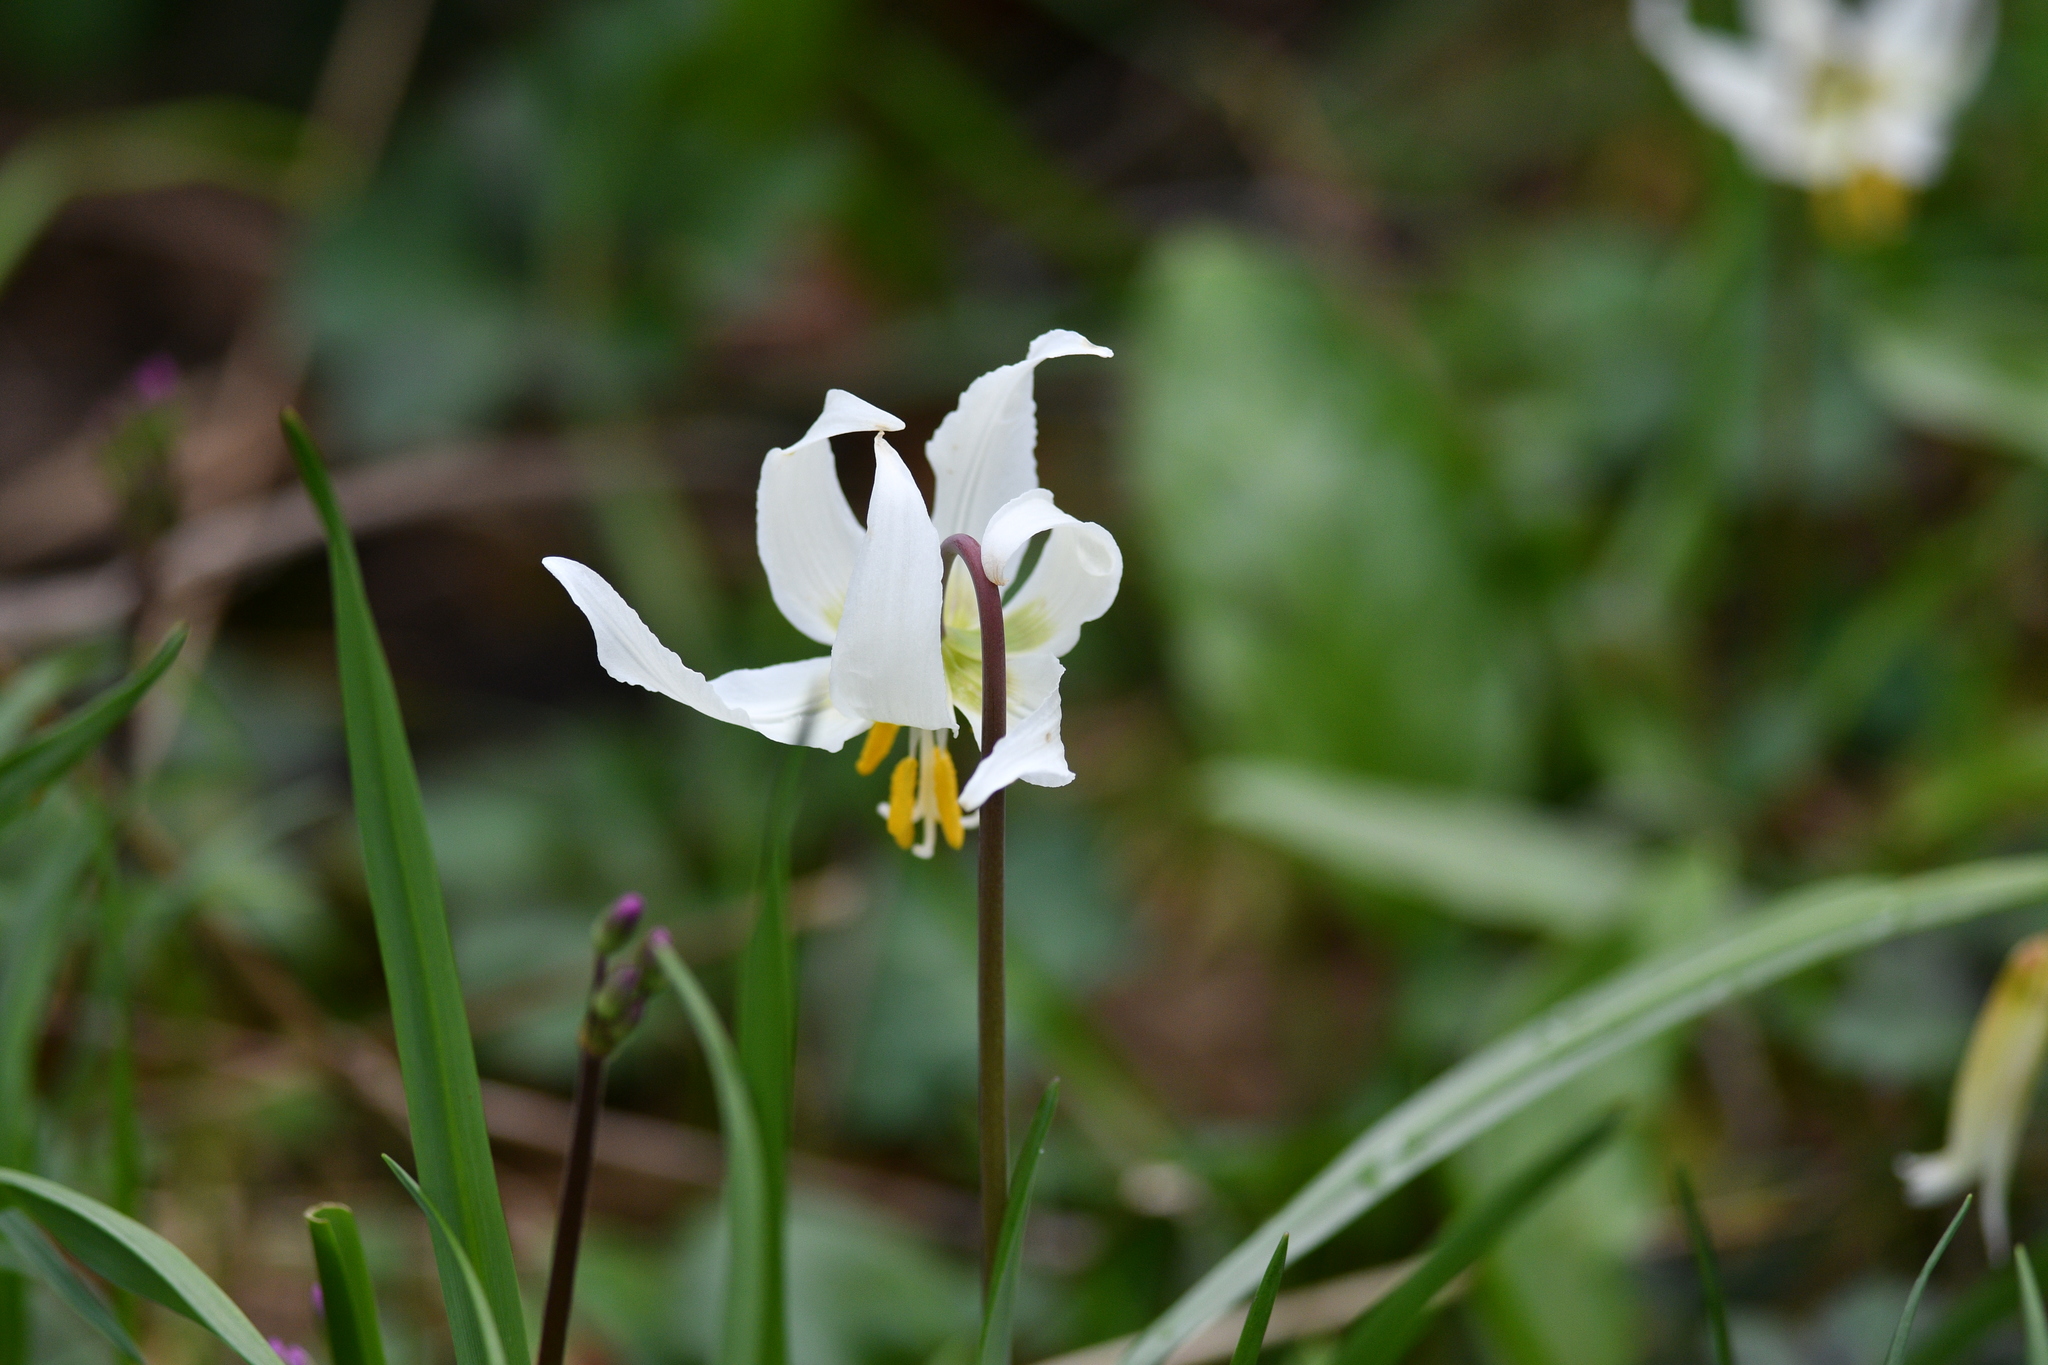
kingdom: Plantae
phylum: Tracheophyta
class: Liliopsida
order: Liliales
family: Liliaceae
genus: Erythronium
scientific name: Erythronium oregonum
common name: Giant adder's-tongue
